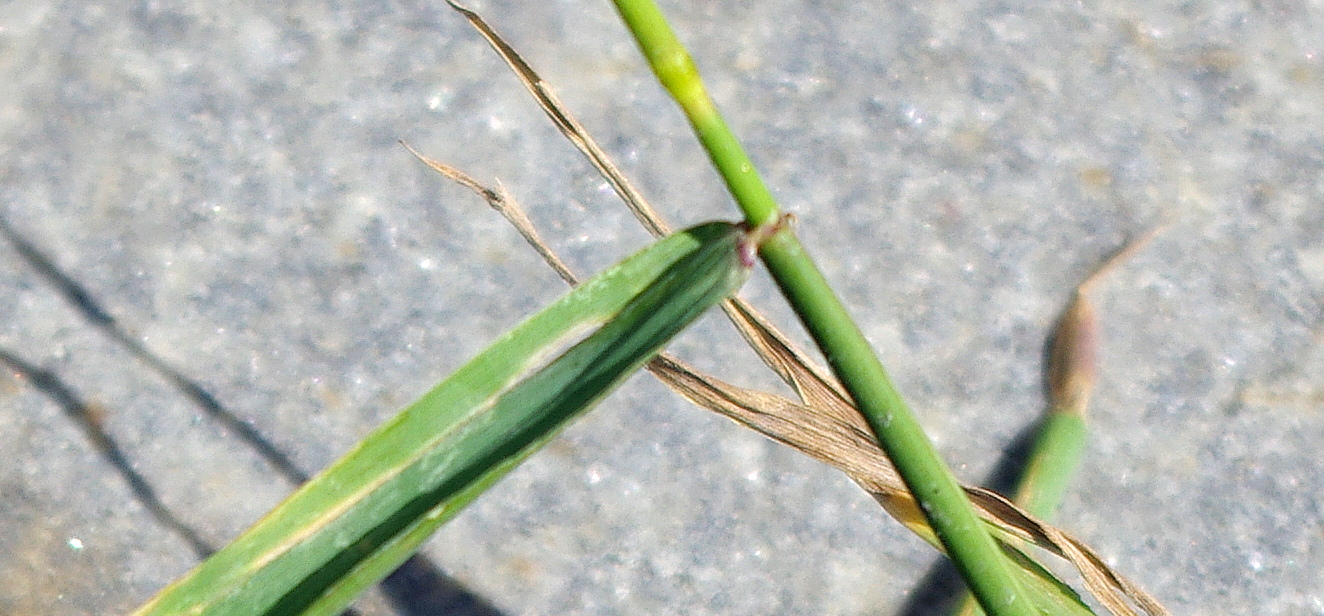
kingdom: Plantae
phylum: Tracheophyta
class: Liliopsida
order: Poales
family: Poaceae
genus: Elymus
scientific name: Elymus repens
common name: Quackgrass
